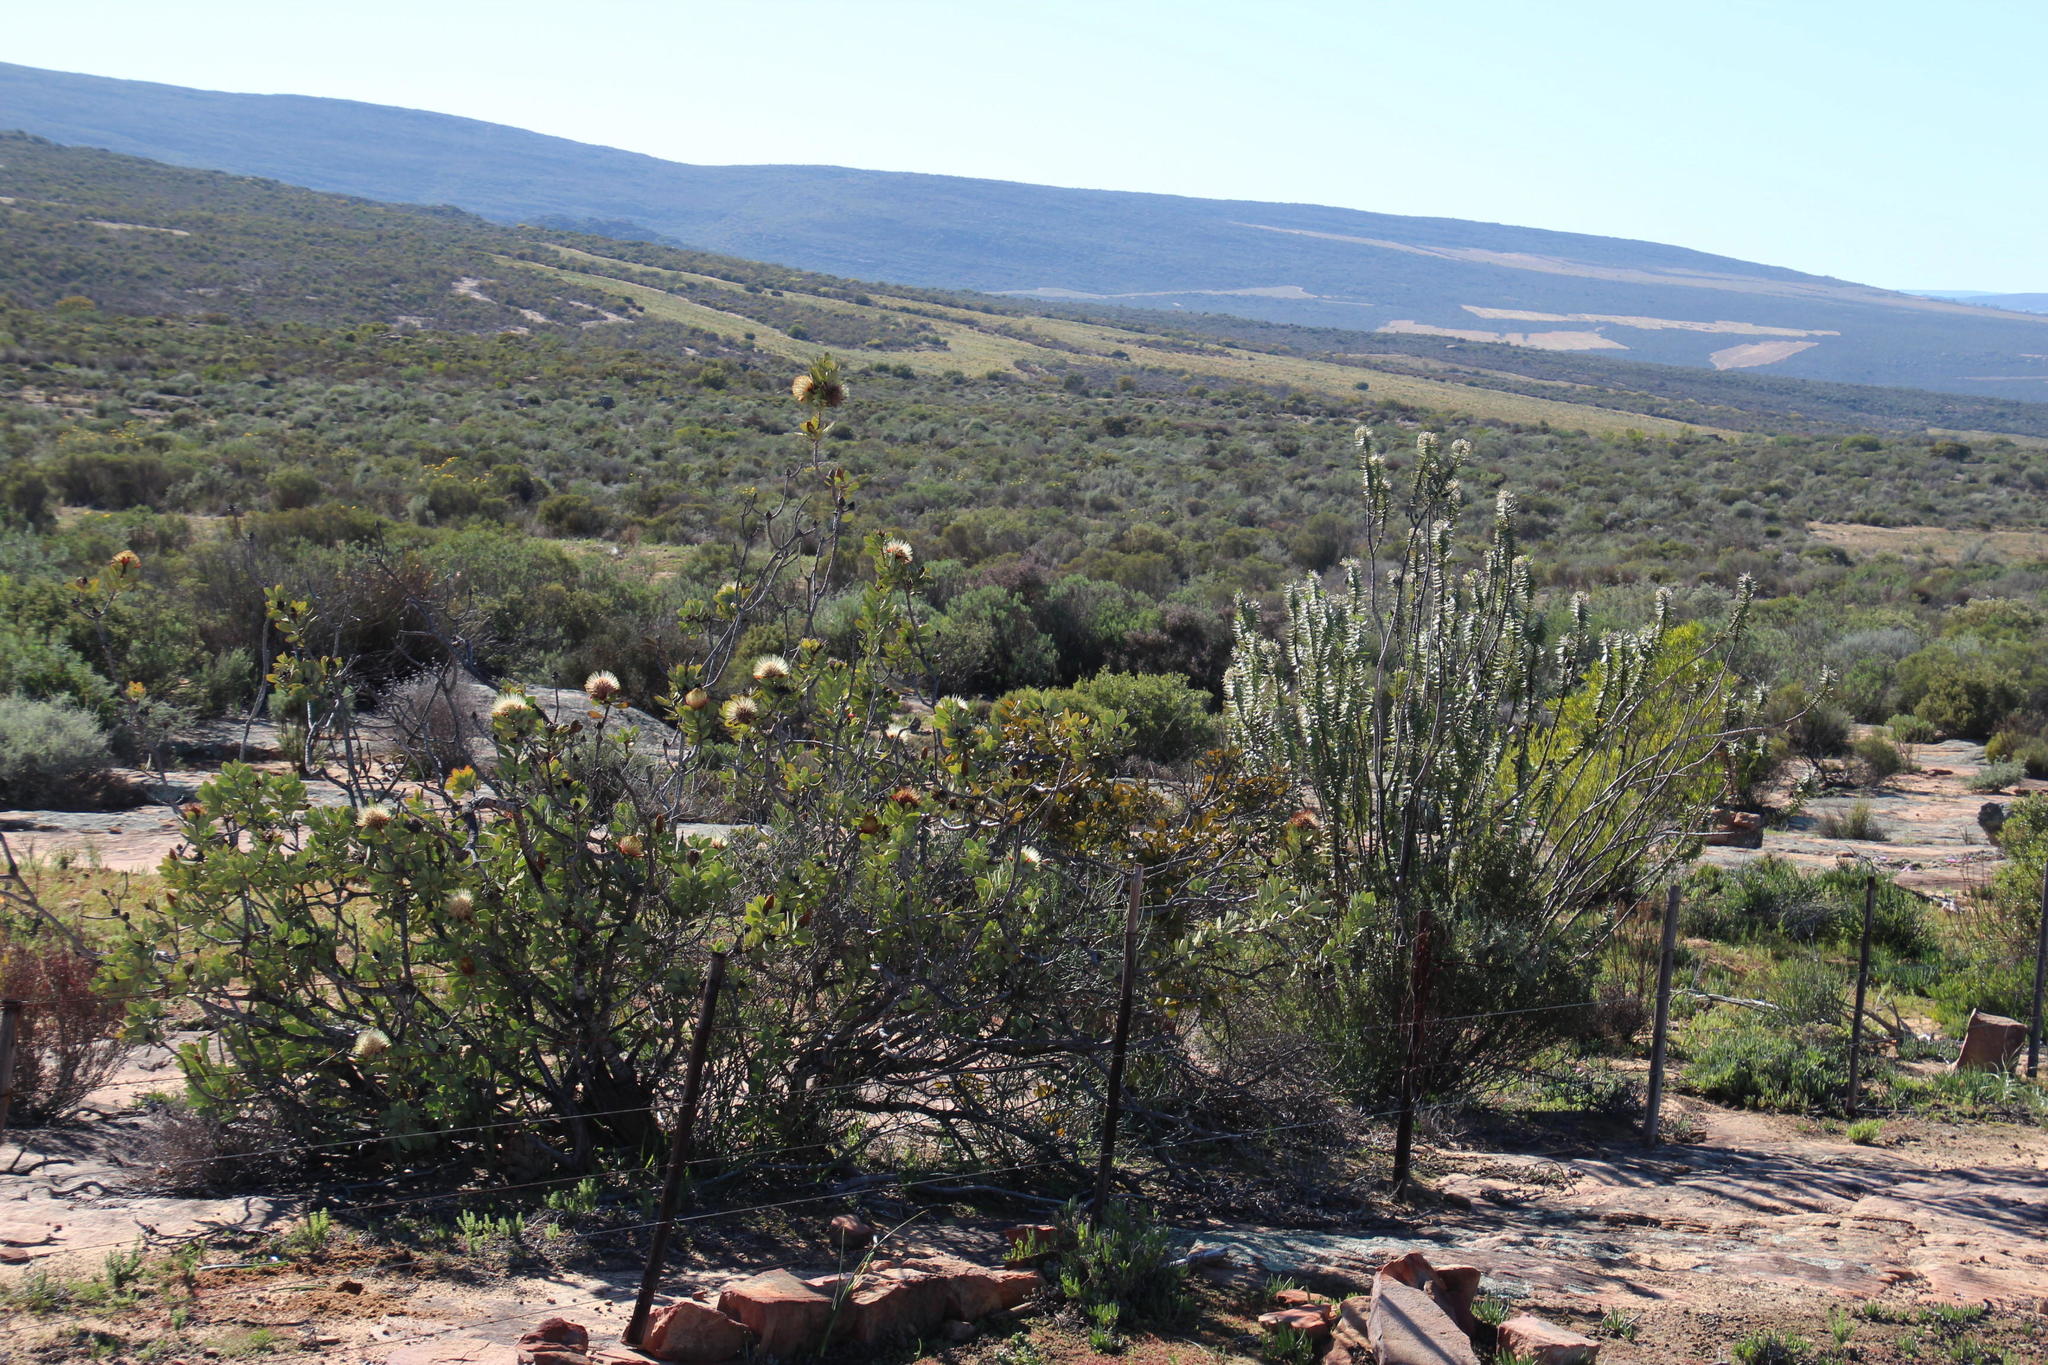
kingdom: Plantae
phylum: Tracheophyta
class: Magnoliopsida
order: Gentianales
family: Apocynaceae
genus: Gomphocarpus
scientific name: Gomphocarpus cancellatus
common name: Wild cotton
